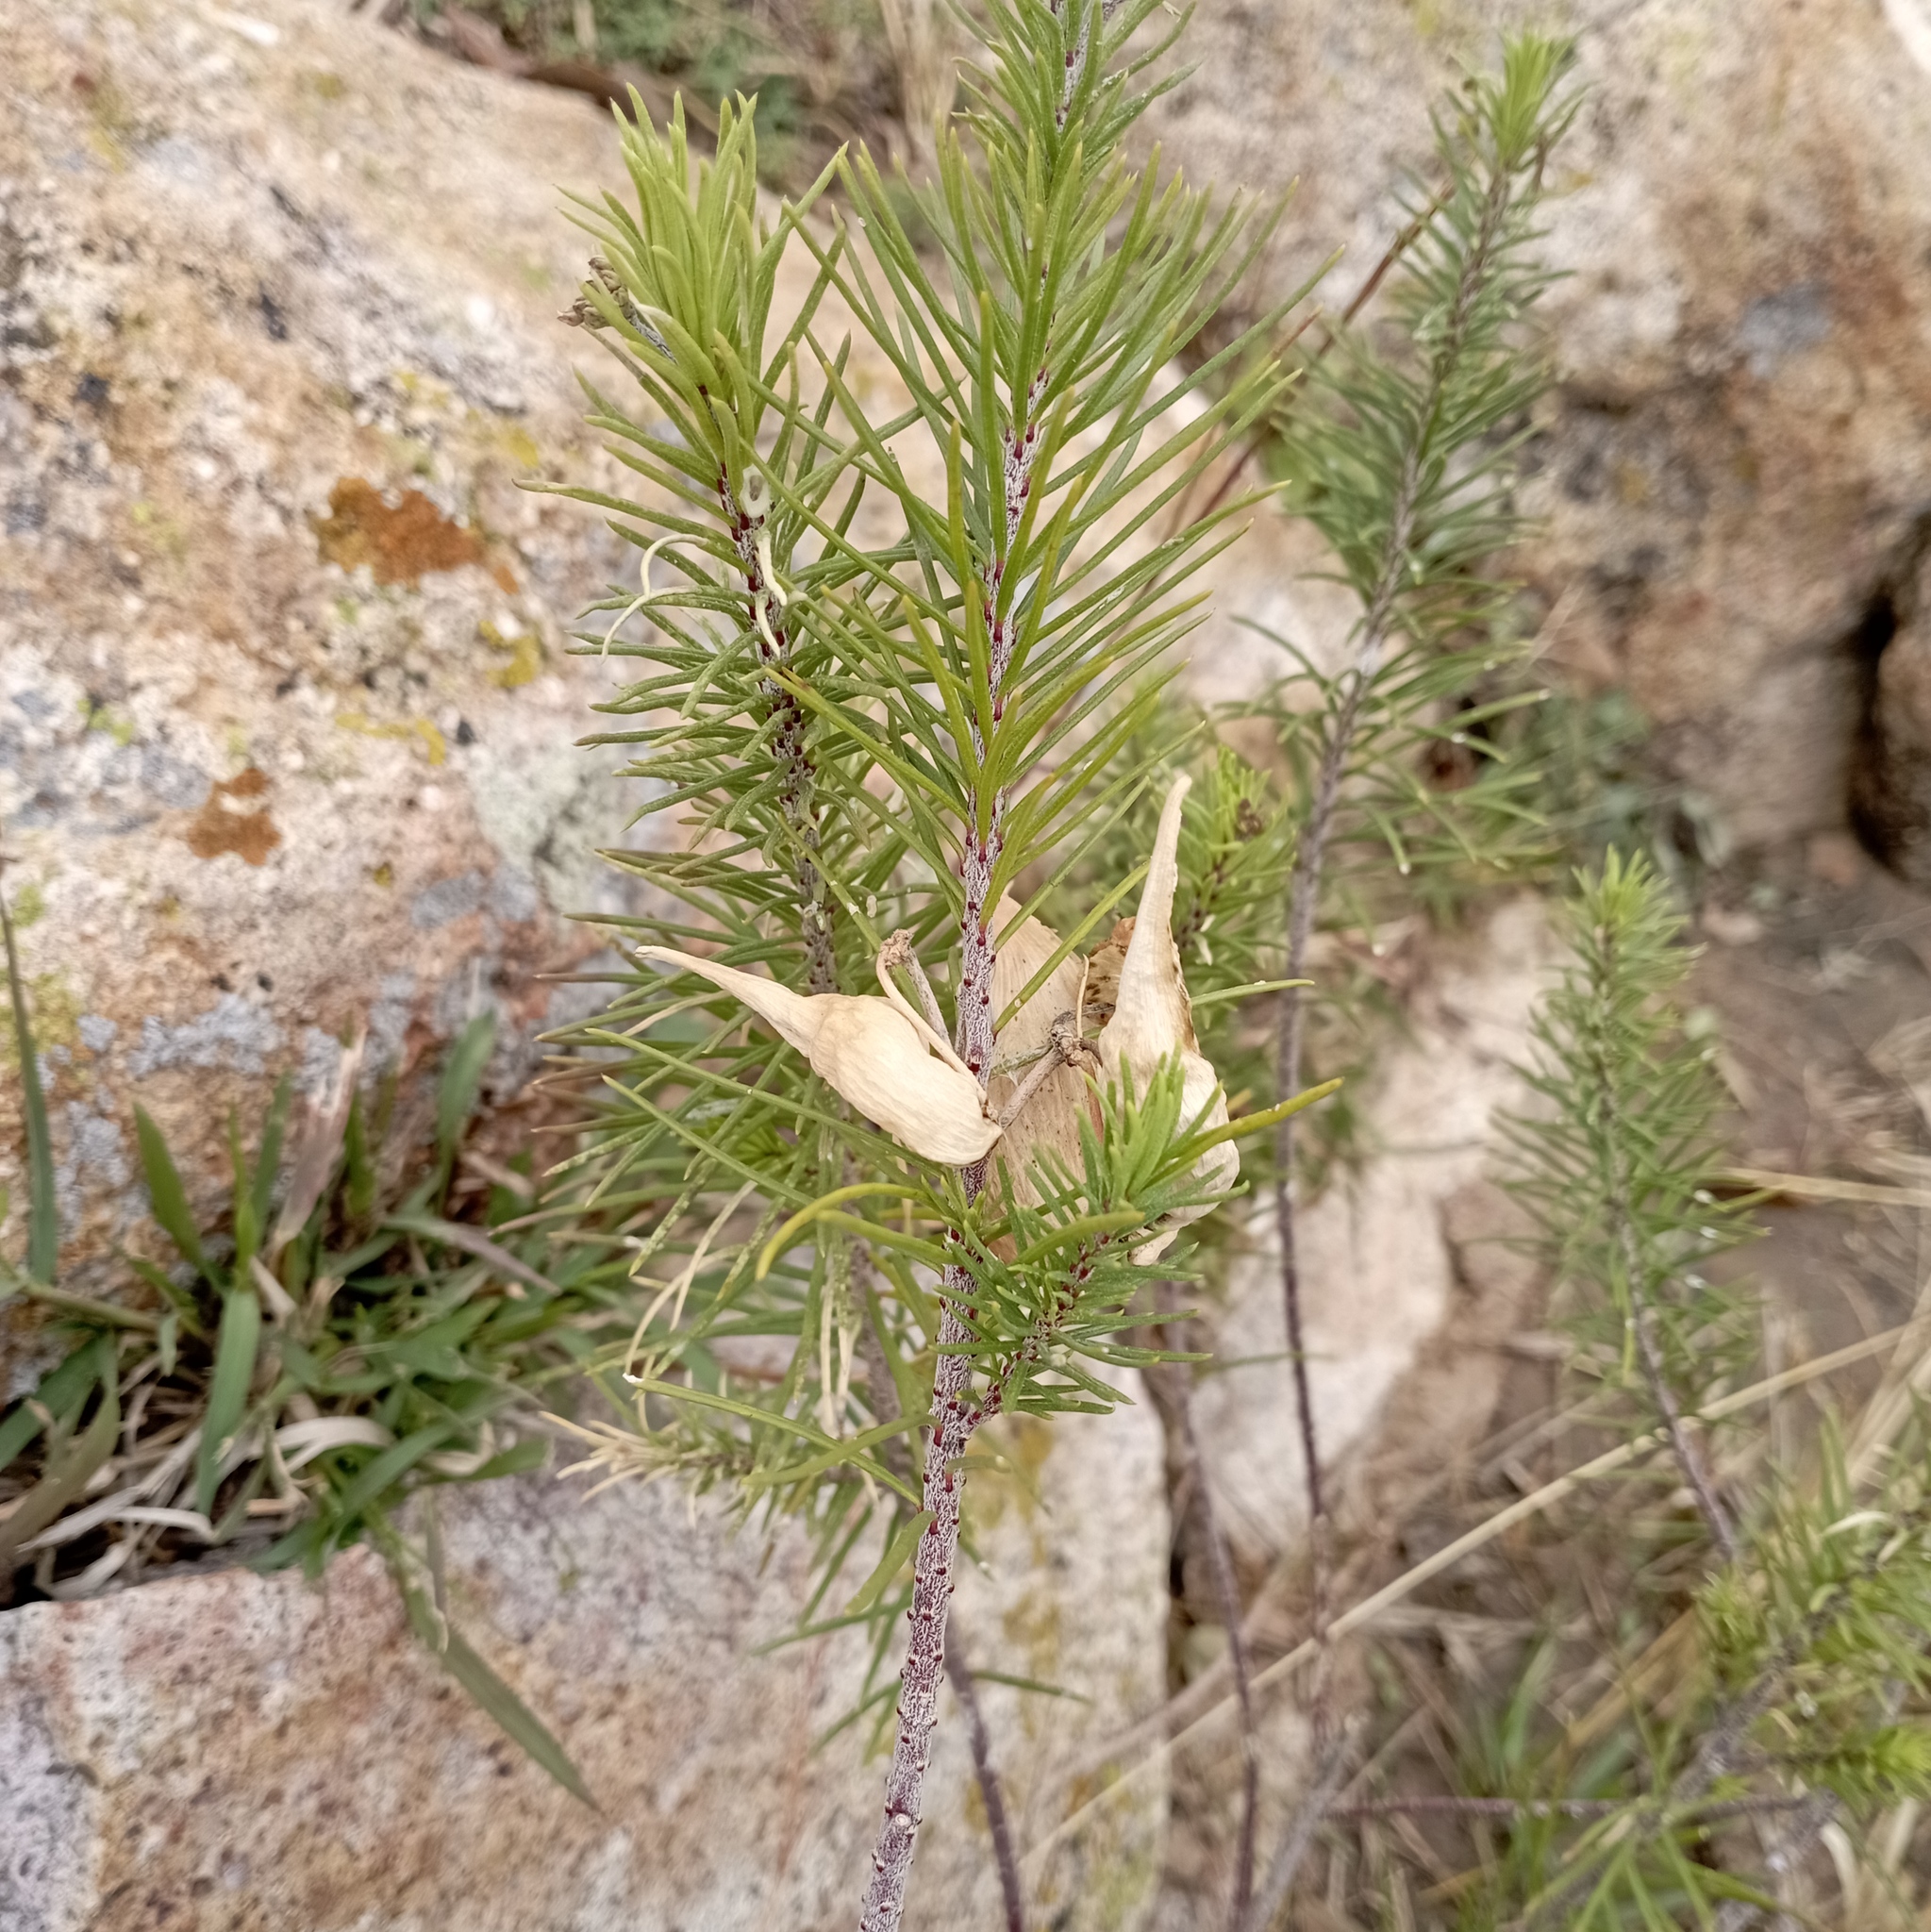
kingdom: Plantae
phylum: Tracheophyta
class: Magnoliopsida
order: Gentianales
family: Apocynaceae
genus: Asclepias
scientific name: Asclepias linaria
